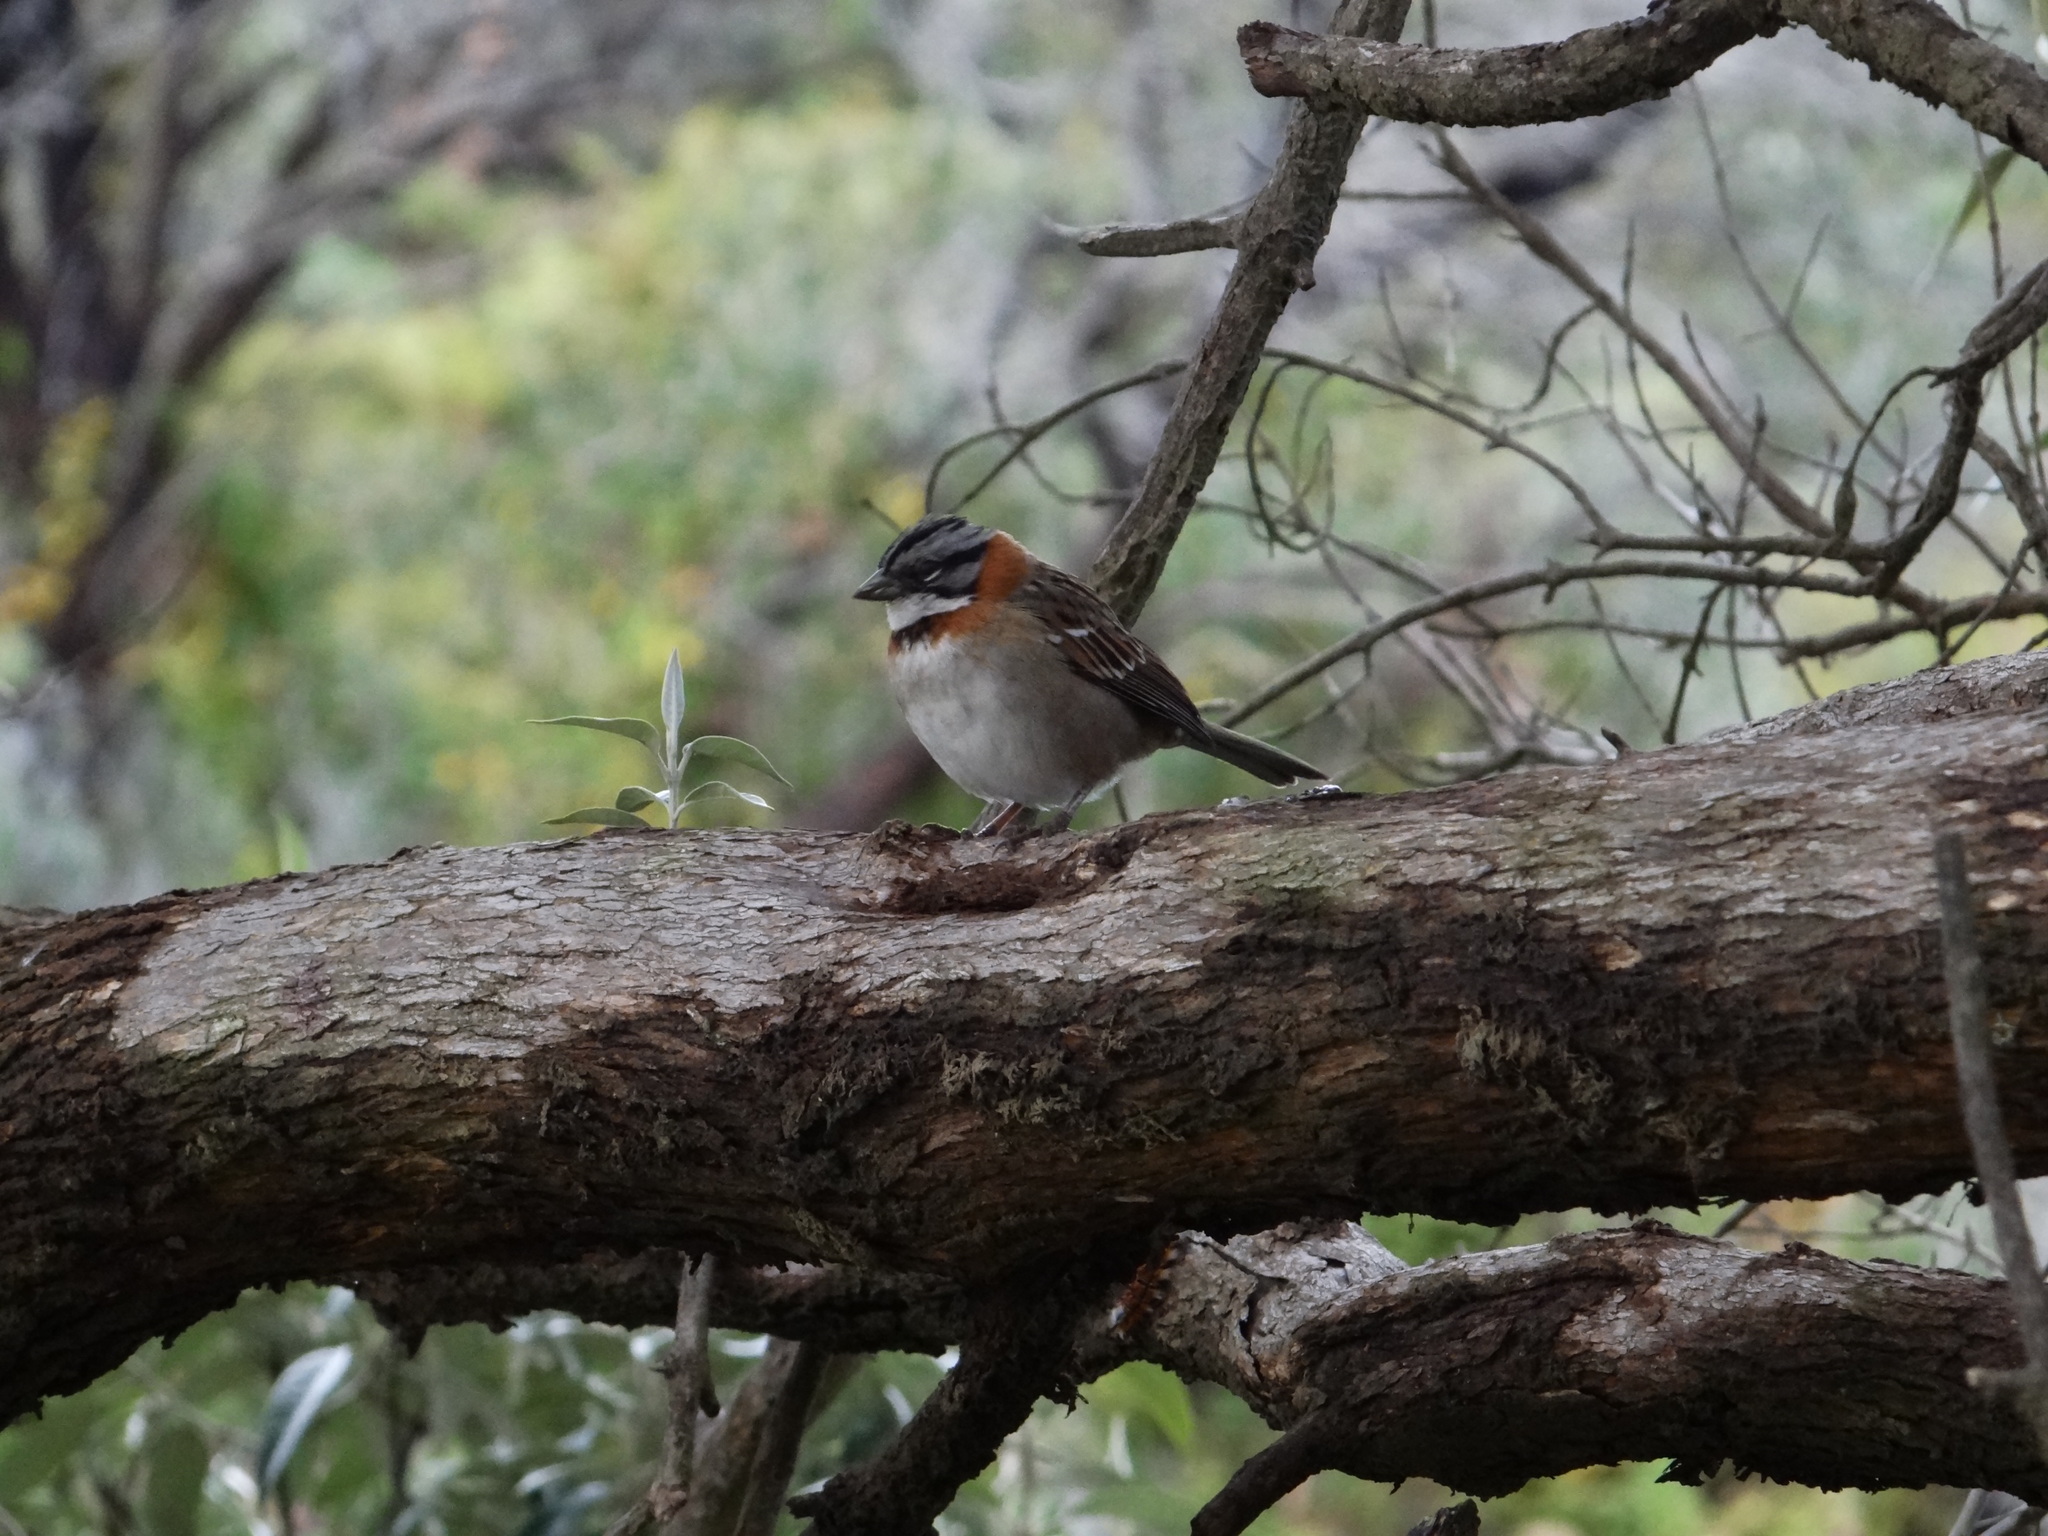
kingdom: Animalia
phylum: Chordata
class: Aves
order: Passeriformes
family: Passerellidae
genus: Zonotrichia
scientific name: Zonotrichia capensis
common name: Rufous-collared sparrow
